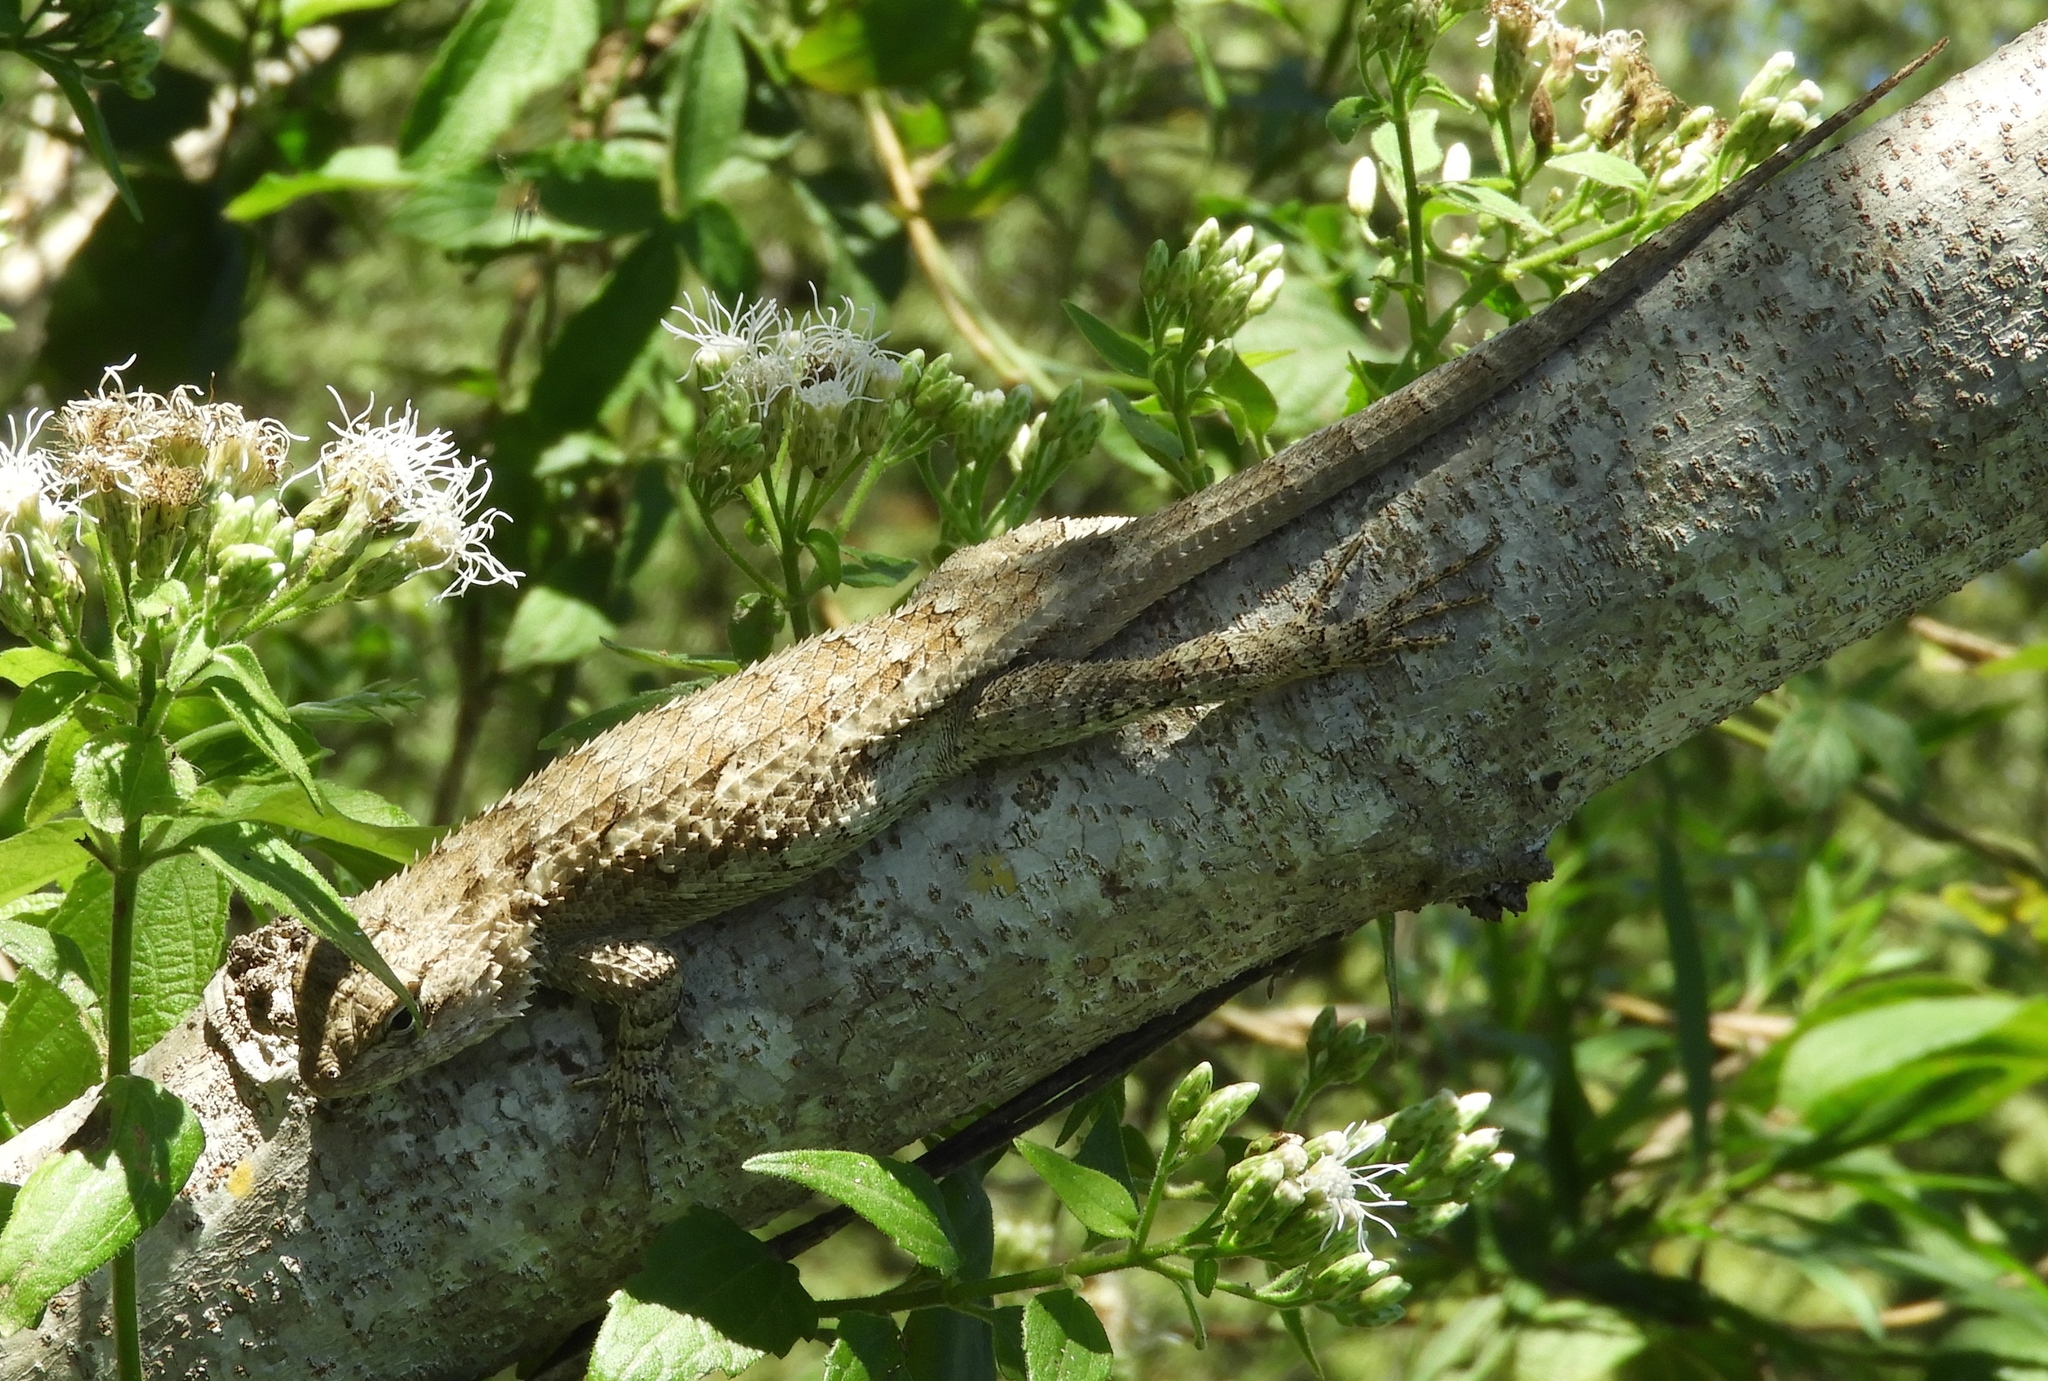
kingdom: Animalia
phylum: Chordata
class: Squamata
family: Phrynosomatidae
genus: Sceloporus
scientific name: Sceloporus clarkii
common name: Clark's spiny lizard
